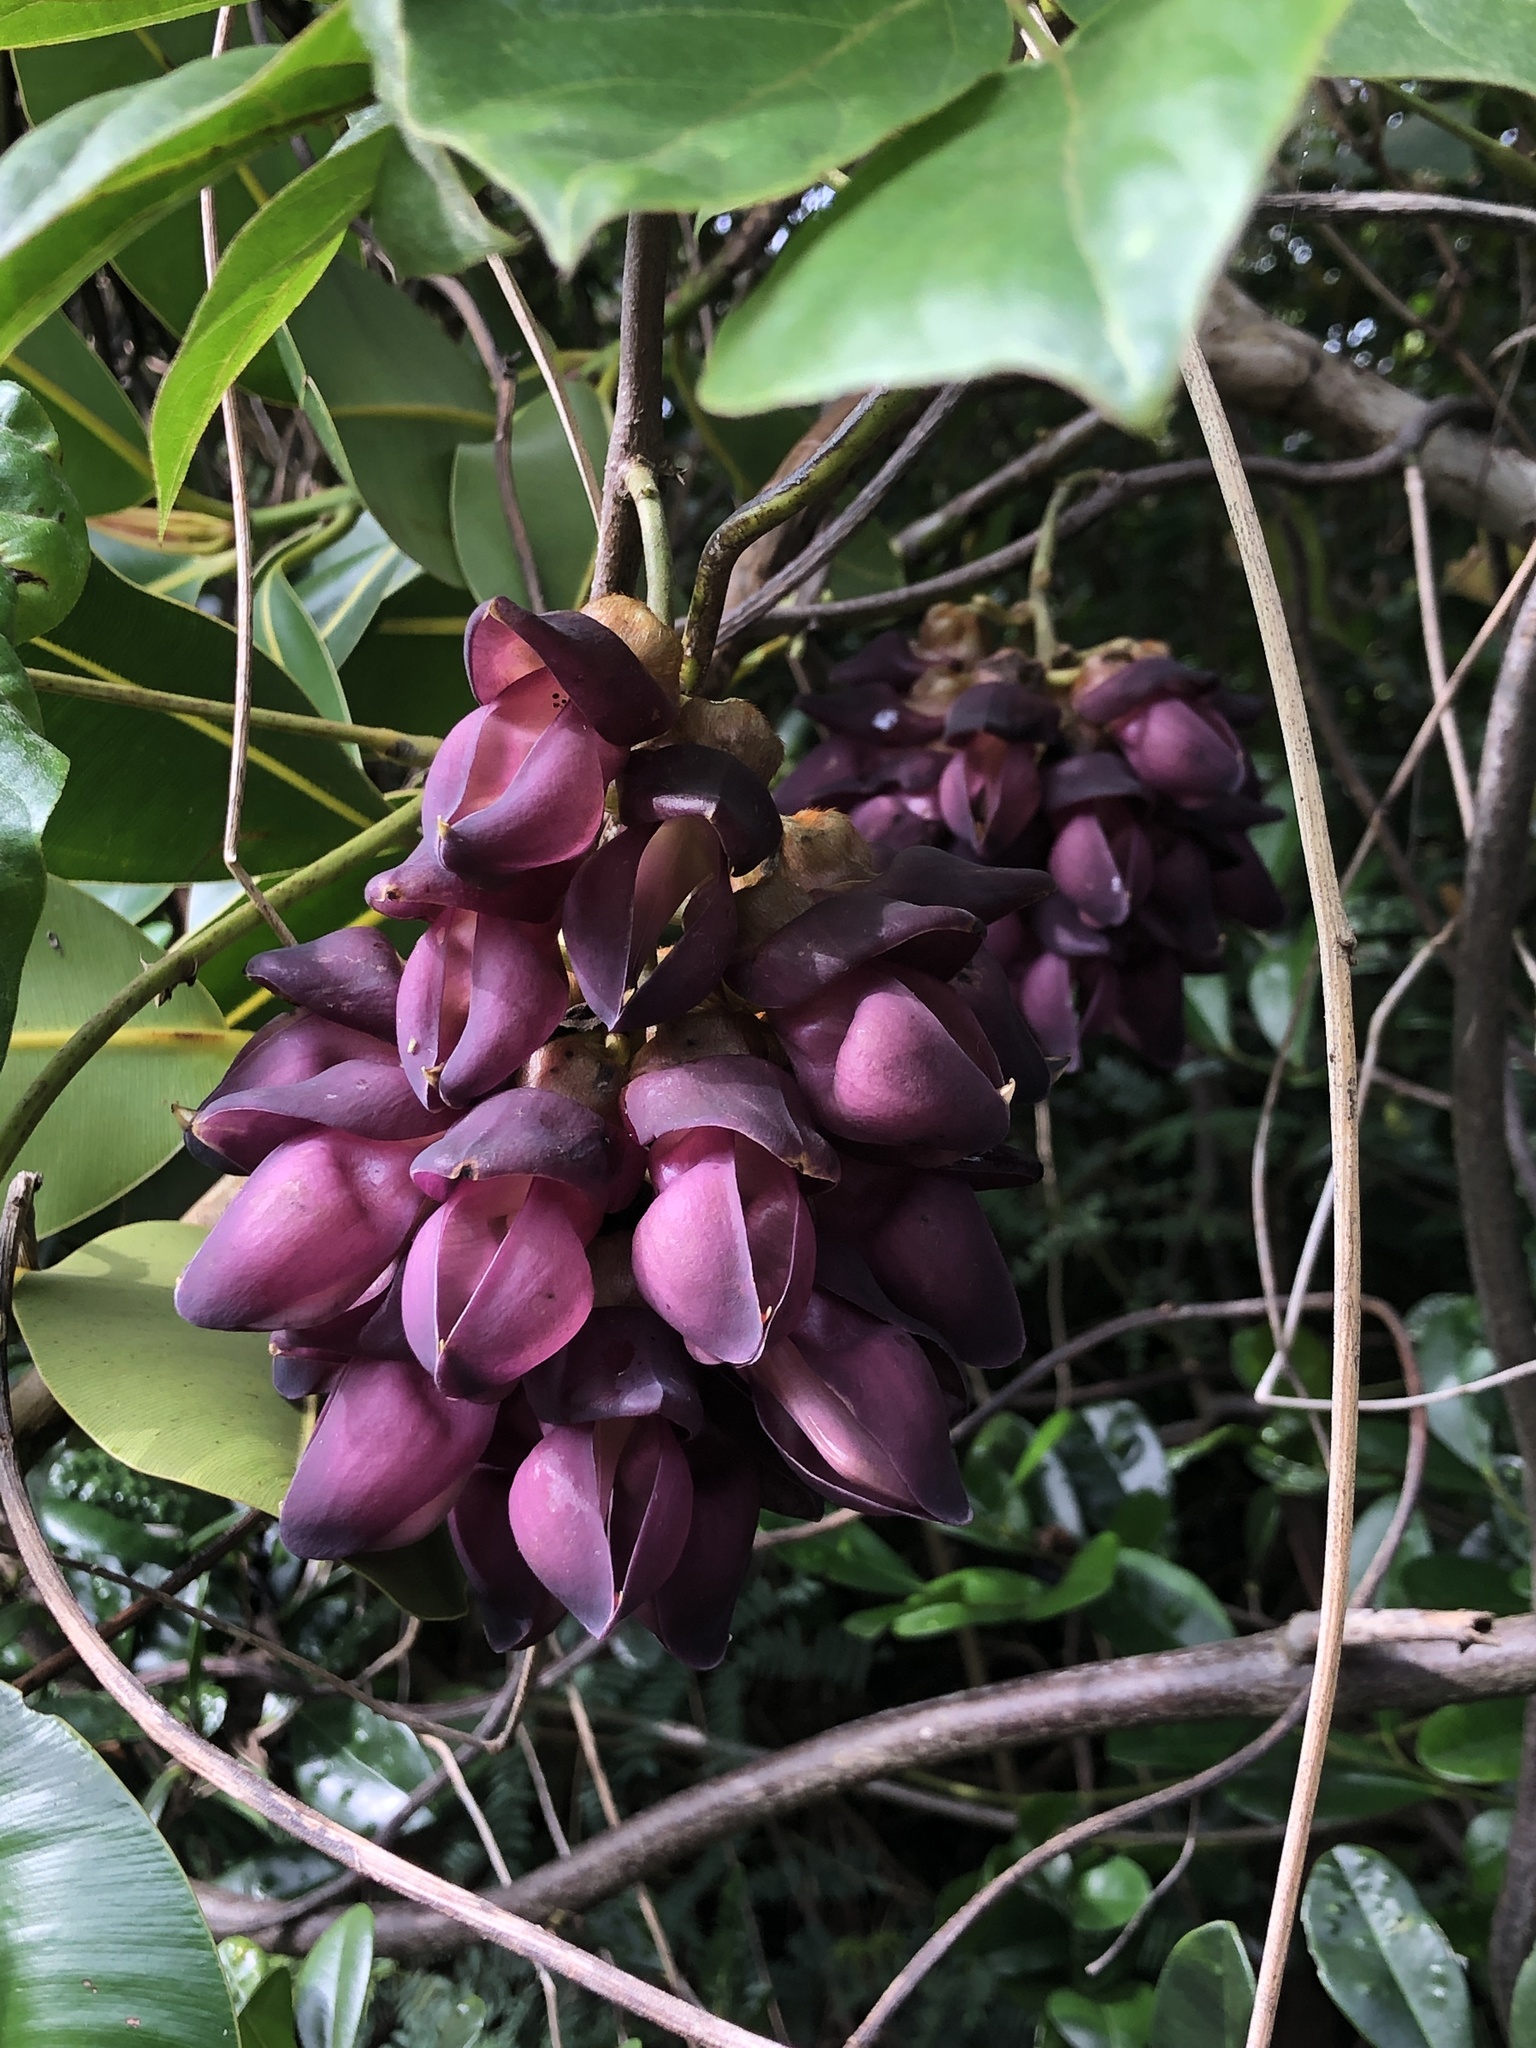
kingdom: Plantae
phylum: Tracheophyta
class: Magnoliopsida
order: Fabales
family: Fabaceae
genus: Mucuna
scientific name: Mucuna membranacea
